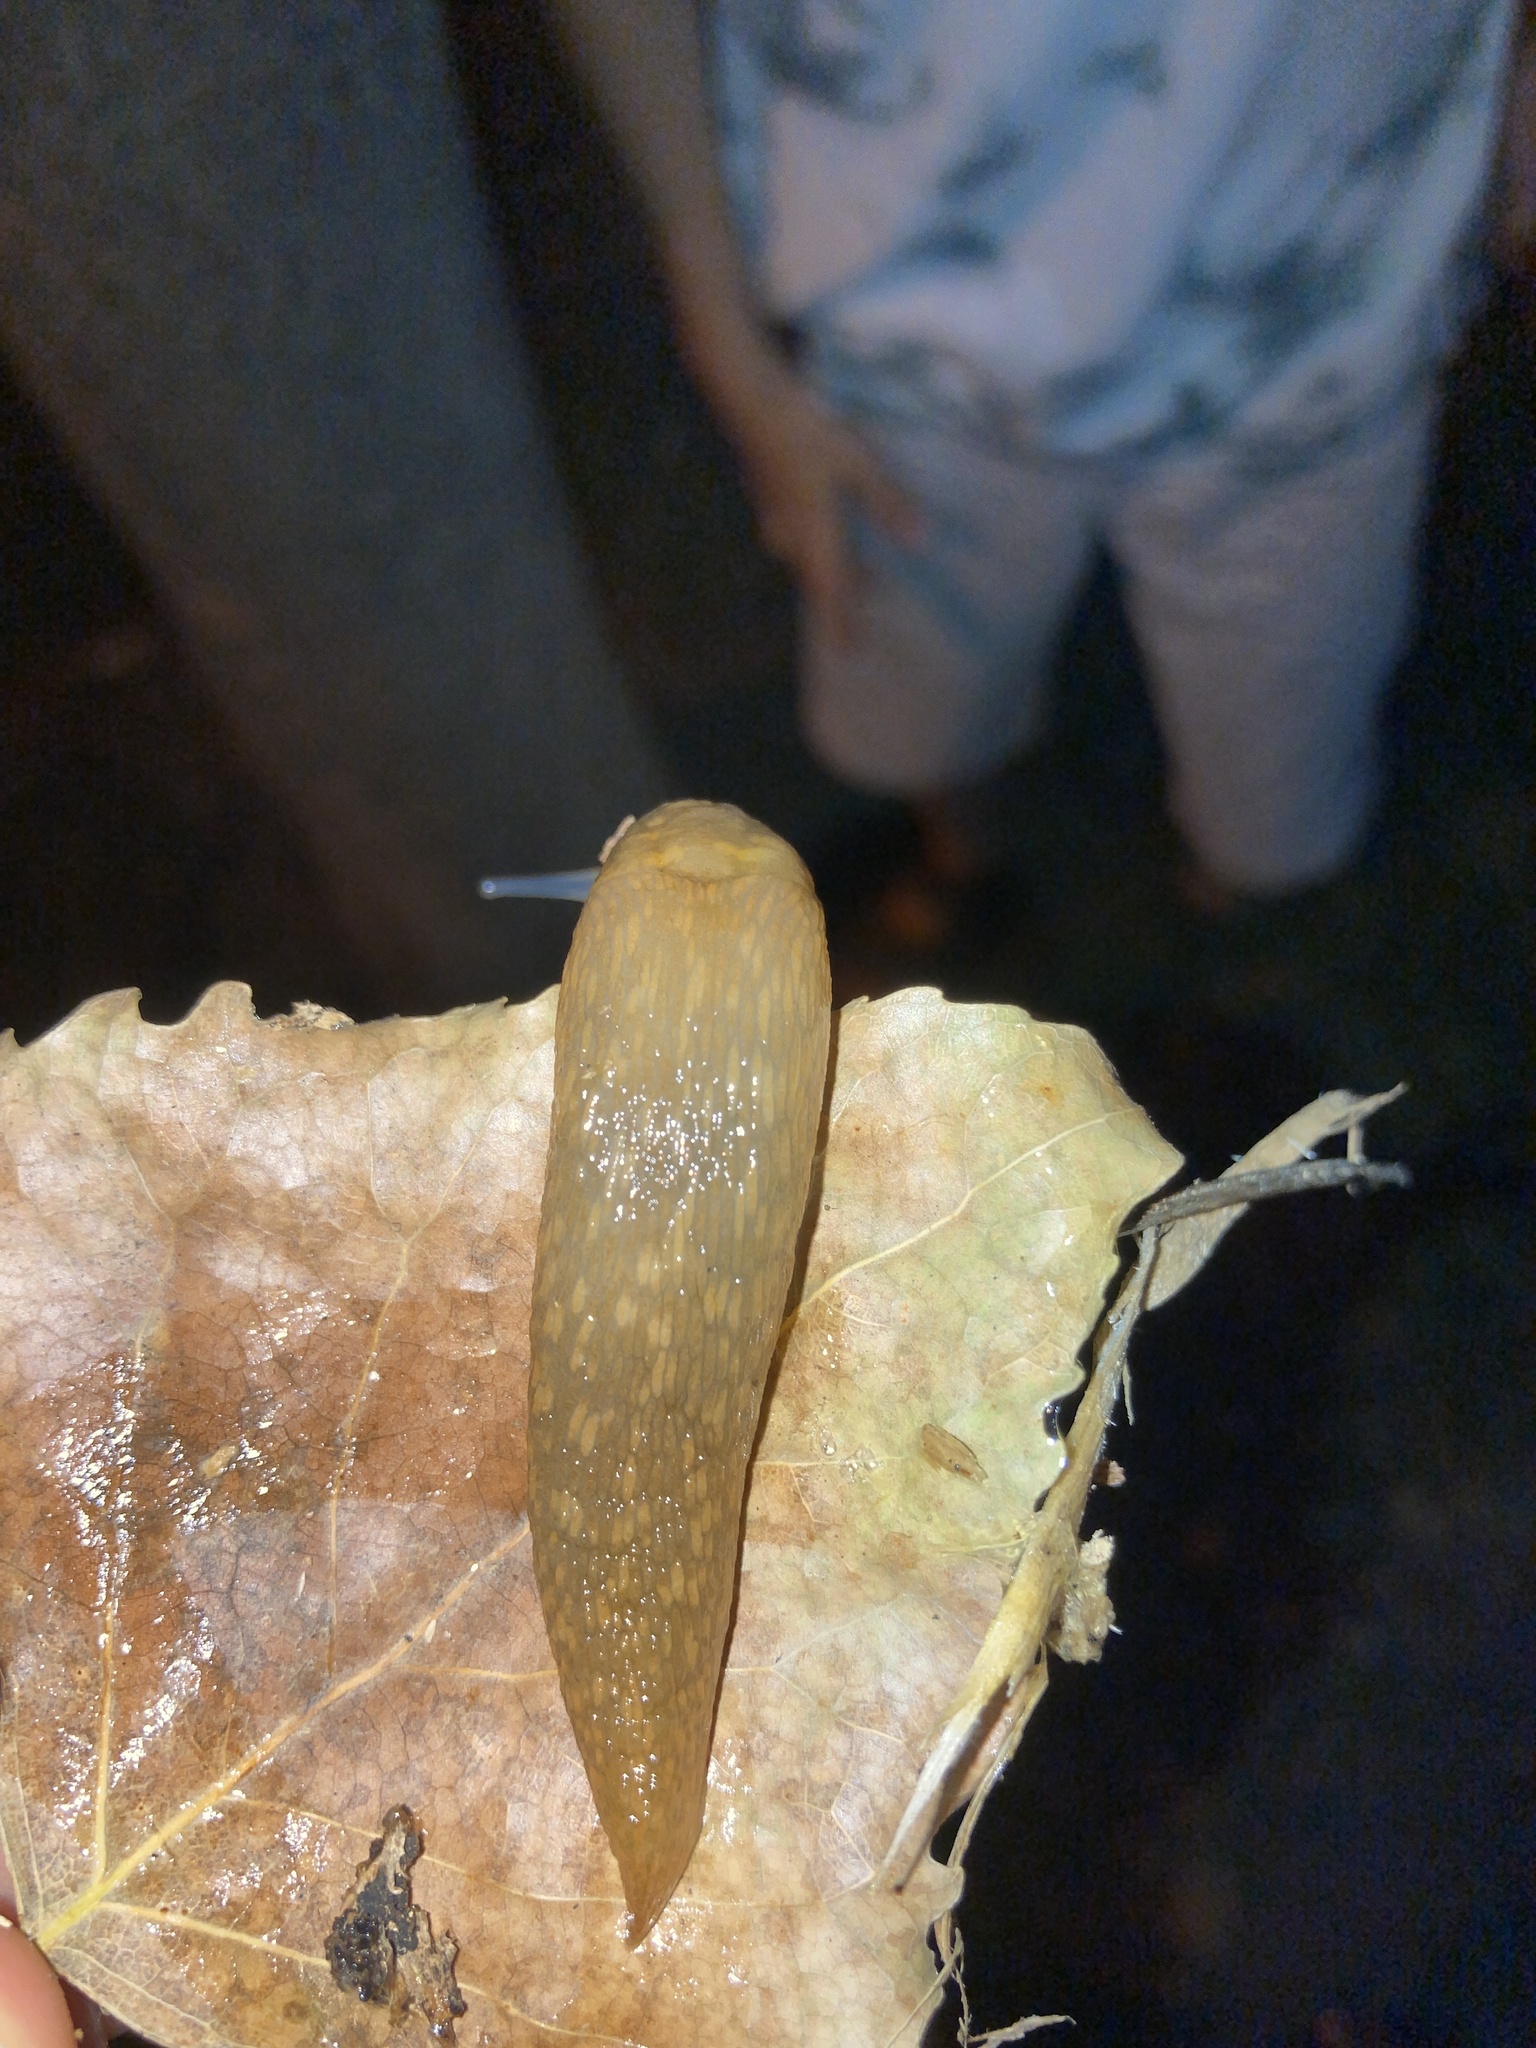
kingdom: Animalia
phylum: Mollusca
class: Gastropoda
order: Stylommatophora
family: Limacidae
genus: Limacus
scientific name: Limacus maculatus
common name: Irish yellow slug
